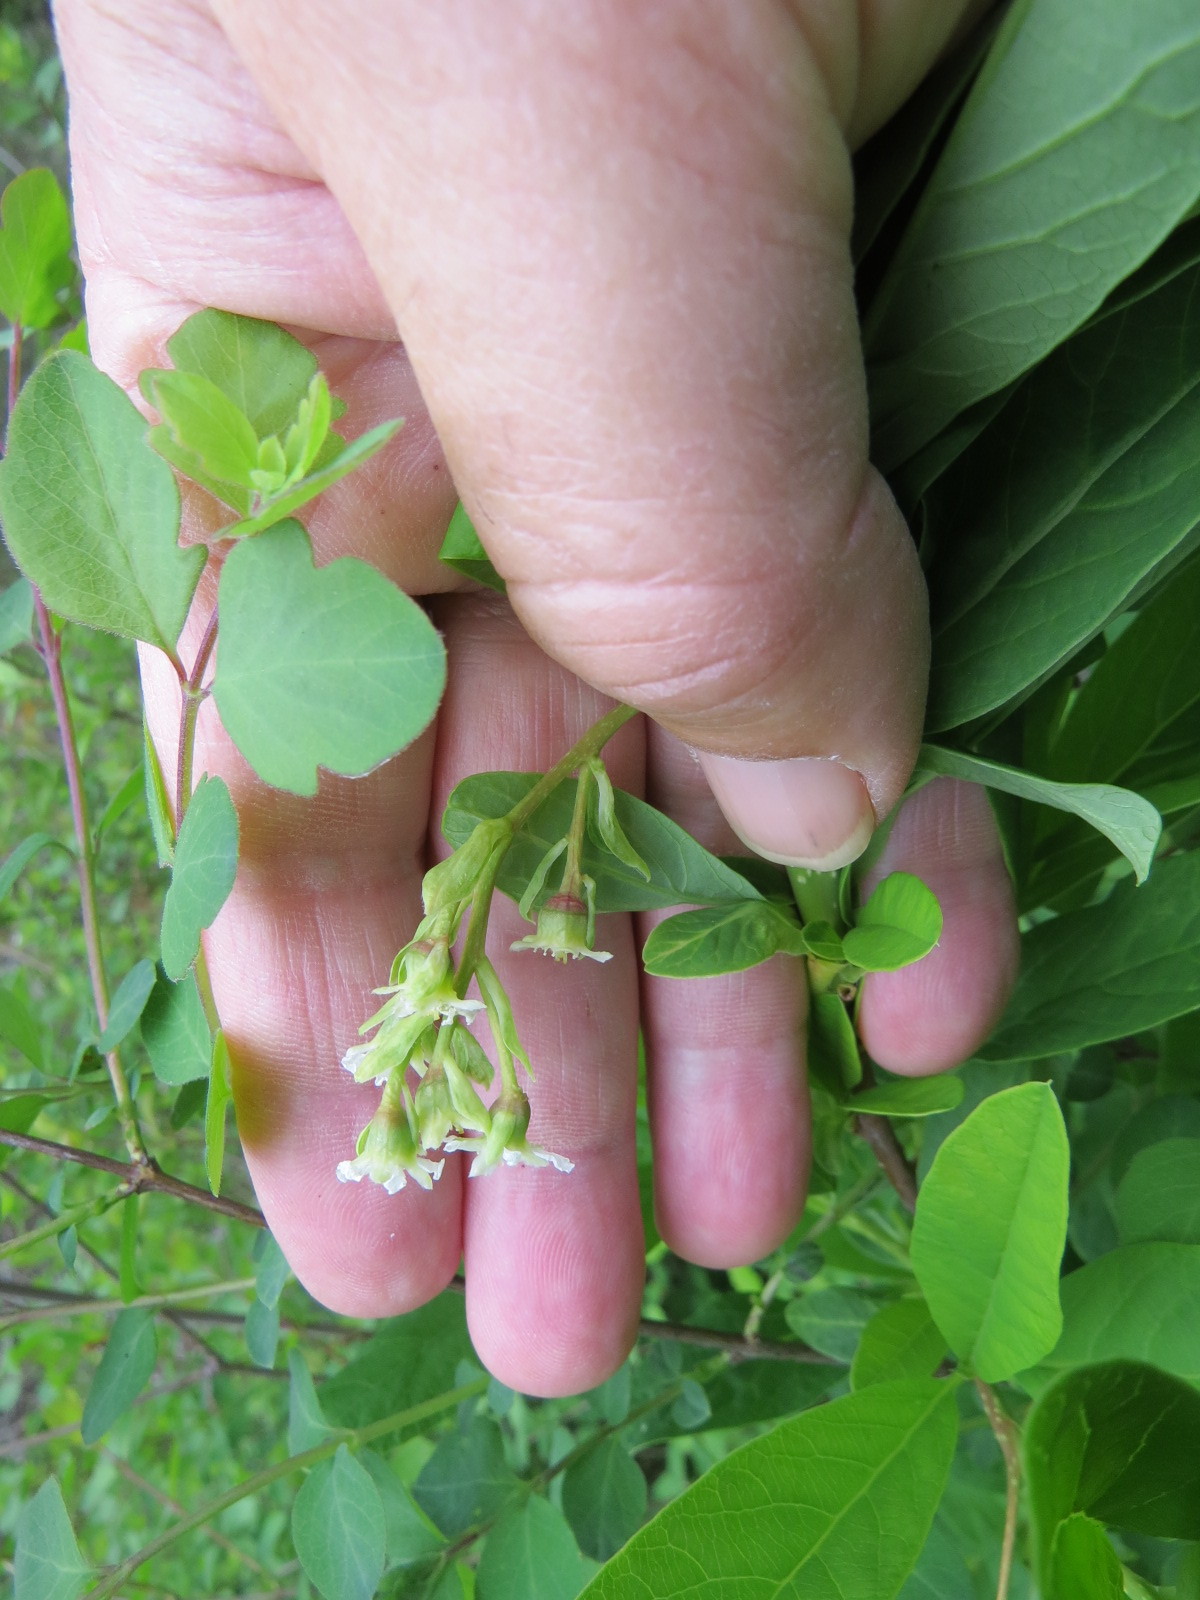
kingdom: Plantae
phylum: Tracheophyta
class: Magnoliopsida
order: Rosales
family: Rosaceae
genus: Oemleria
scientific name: Oemleria cerasiformis
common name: Osoberry
